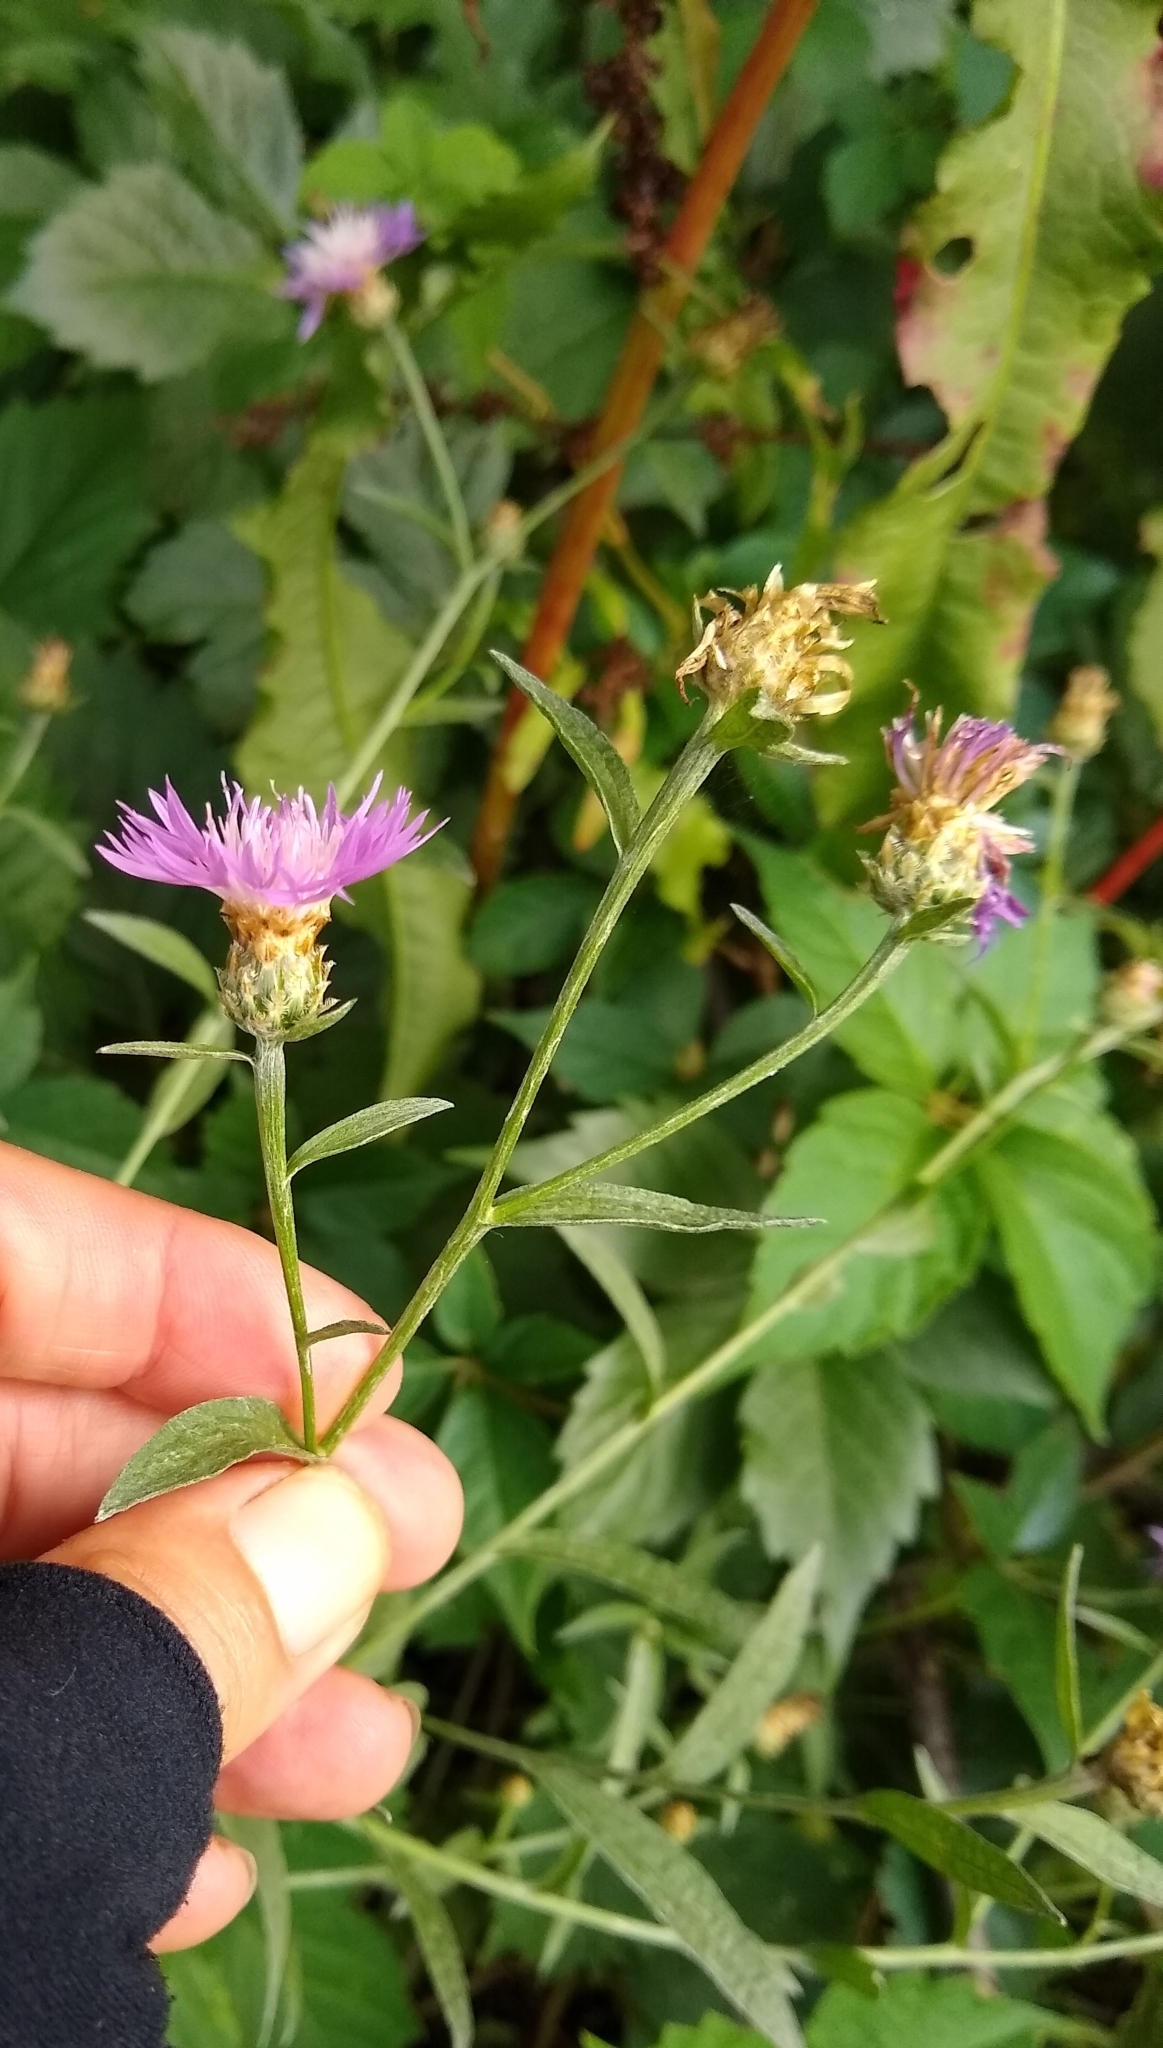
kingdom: Plantae
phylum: Tracheophyta
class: Magnoliopsida
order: Asterales
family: Asteraceae
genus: Centaurea
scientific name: Centaurea moncktonii
